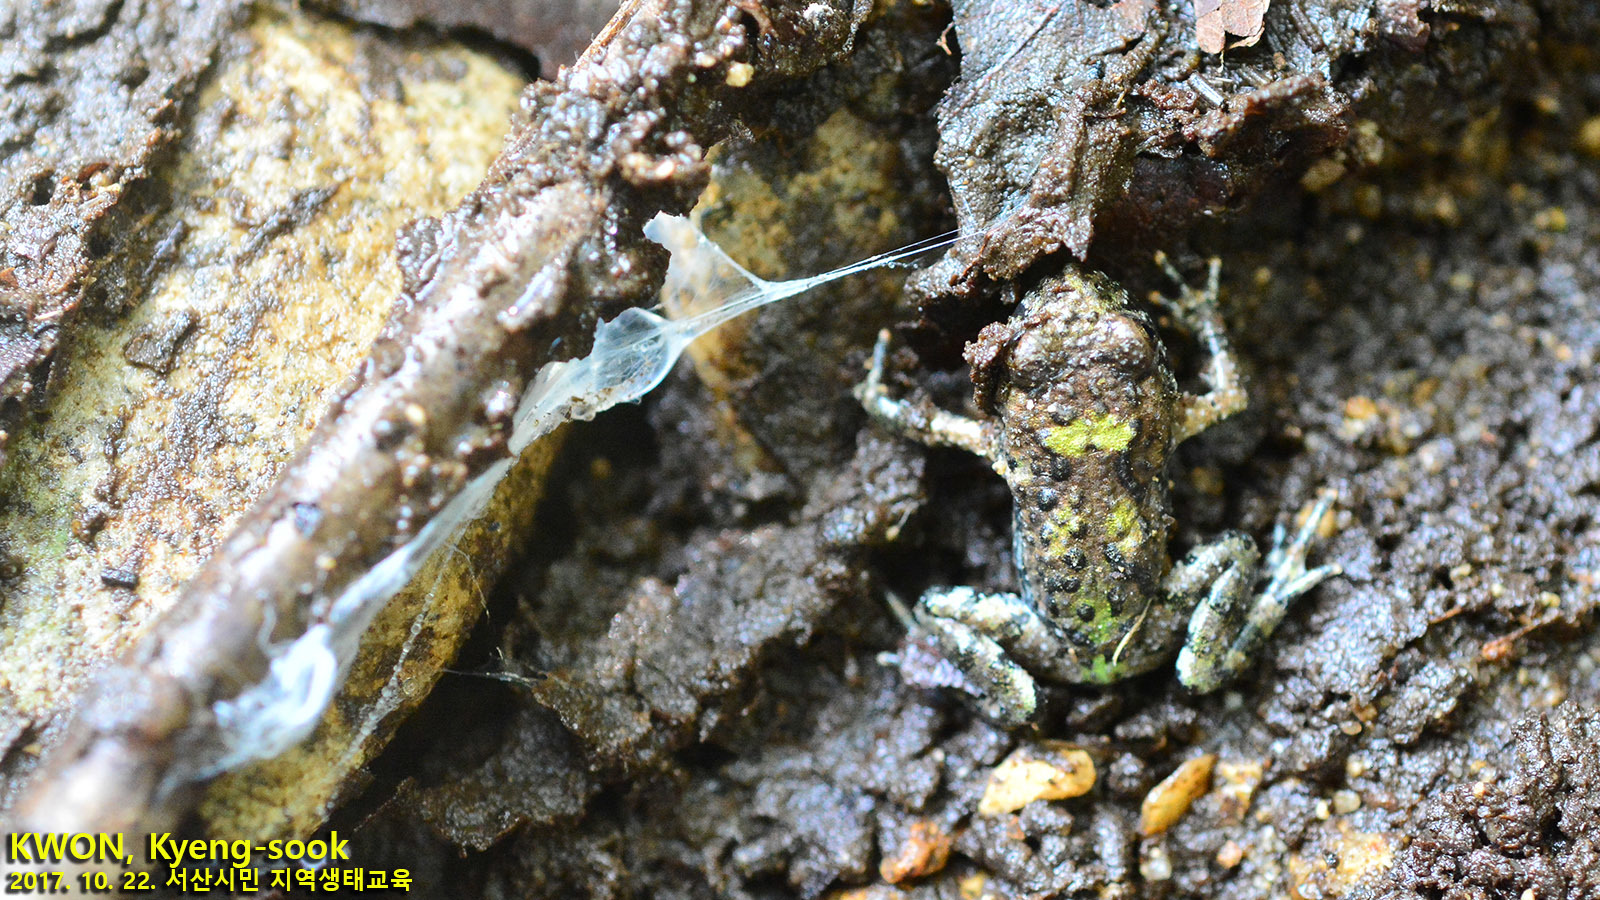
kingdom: Animalia
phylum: Chordata
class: Amphibia
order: Anura
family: Bombinatoridae
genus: Bombina
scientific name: Bombina orientalis
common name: Oriental firebelly toad
